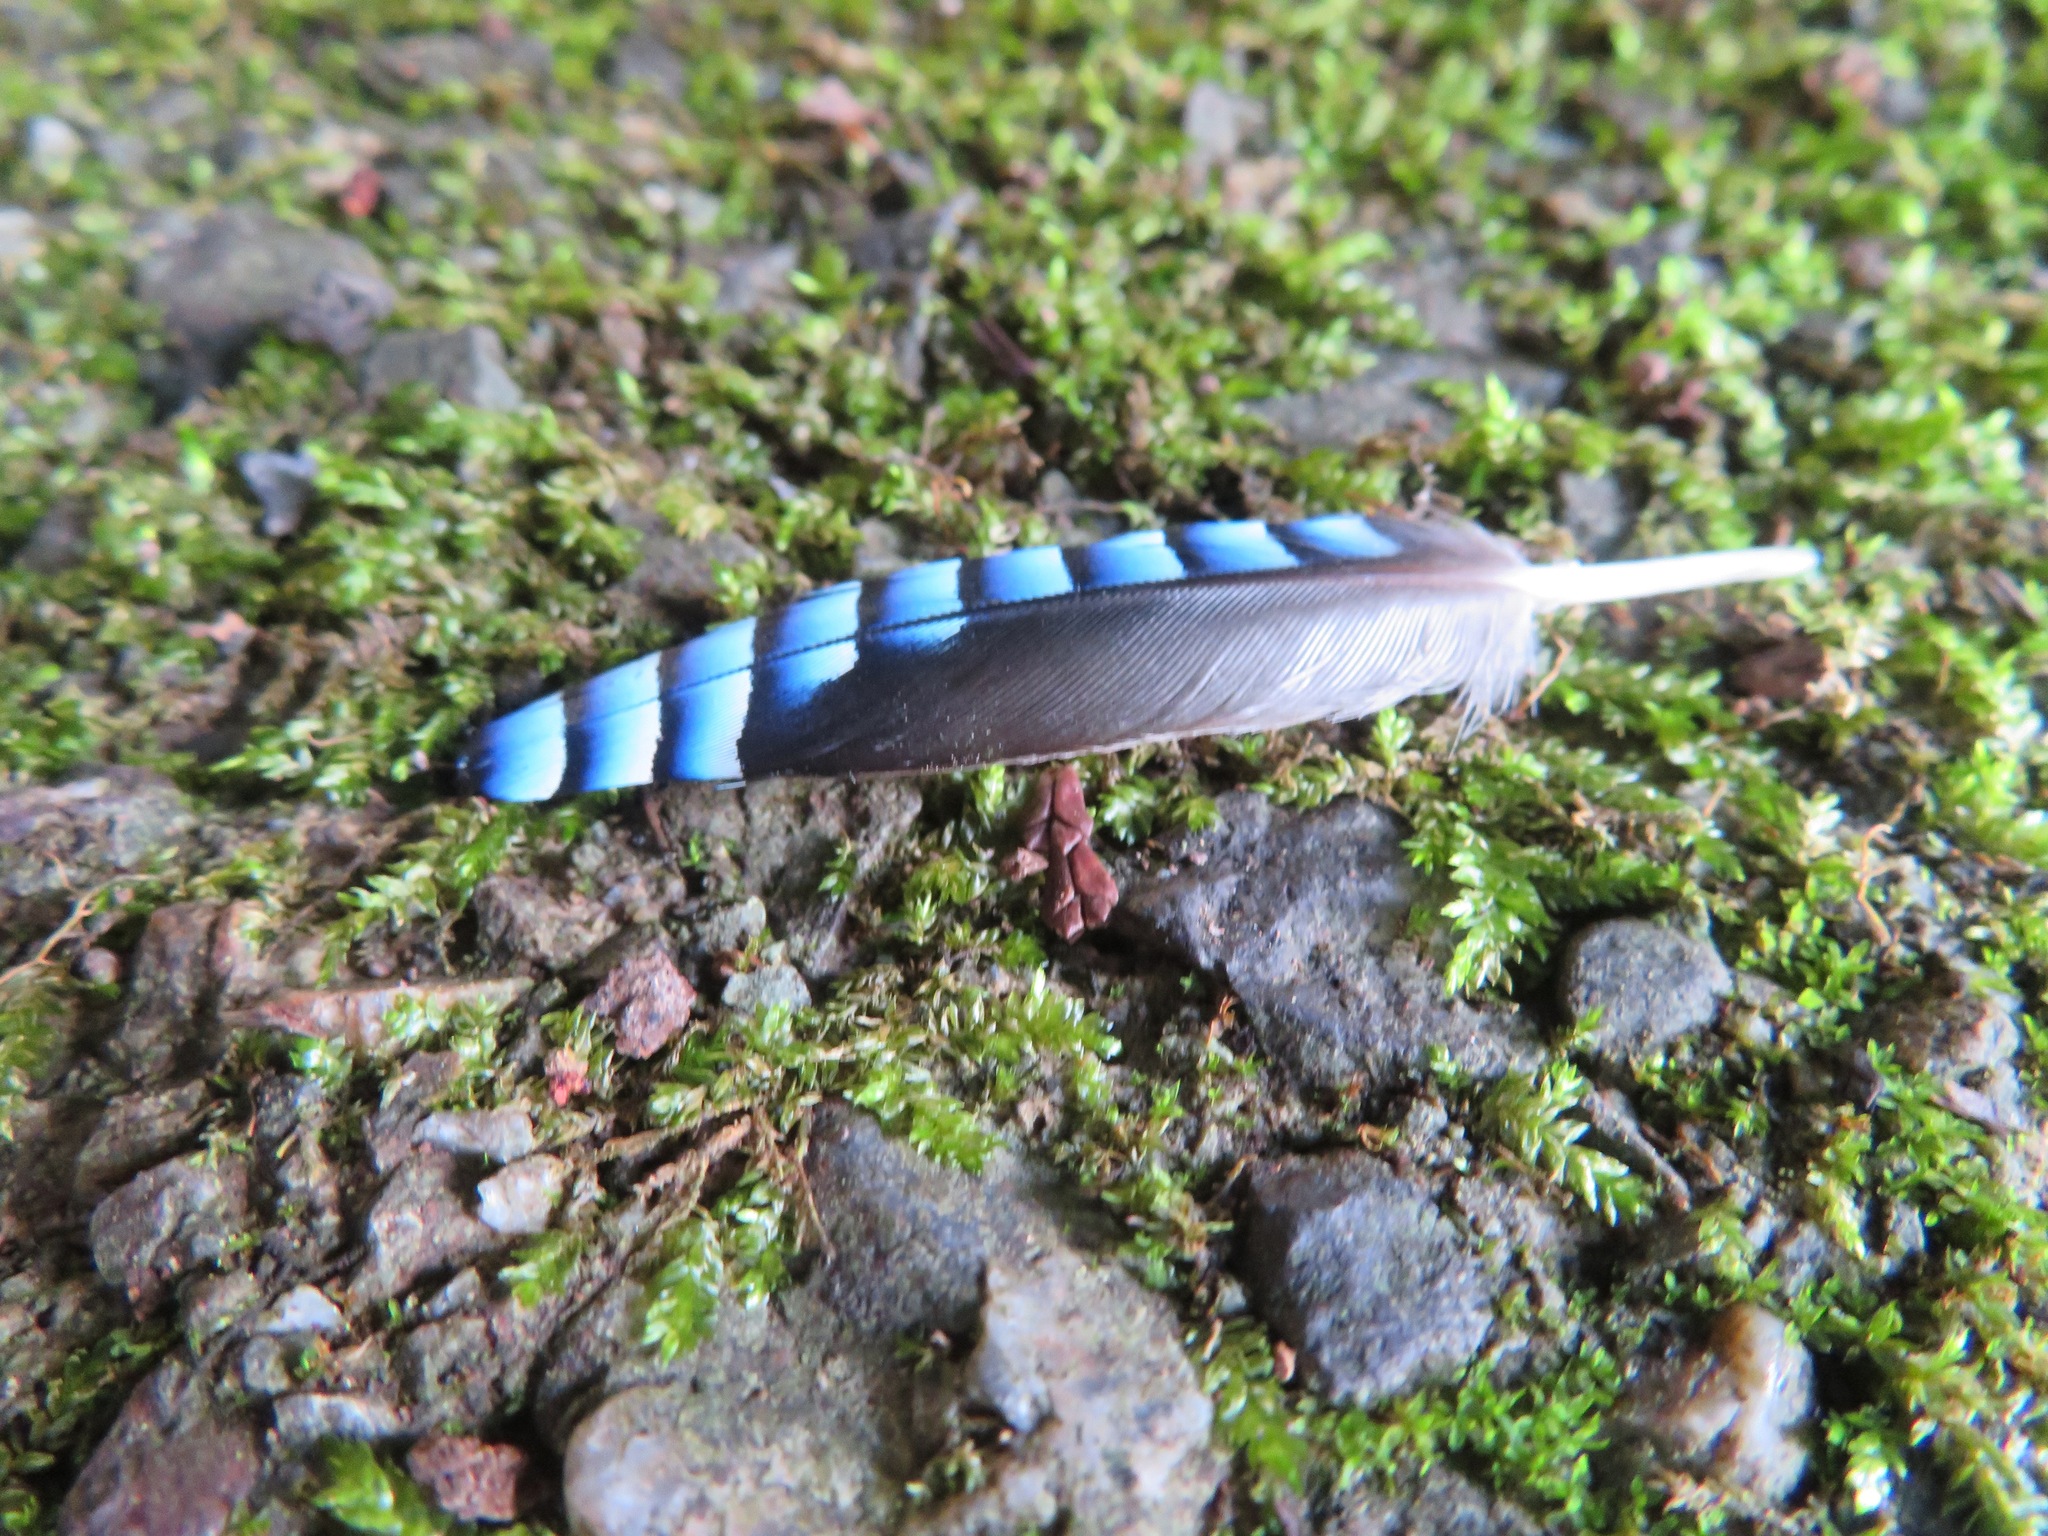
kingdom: Animalia
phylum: Chordata
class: Aves
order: Passeriformes
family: Corvidae
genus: Garrulus
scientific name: Garrulus glandarius
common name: Eurasian jay
